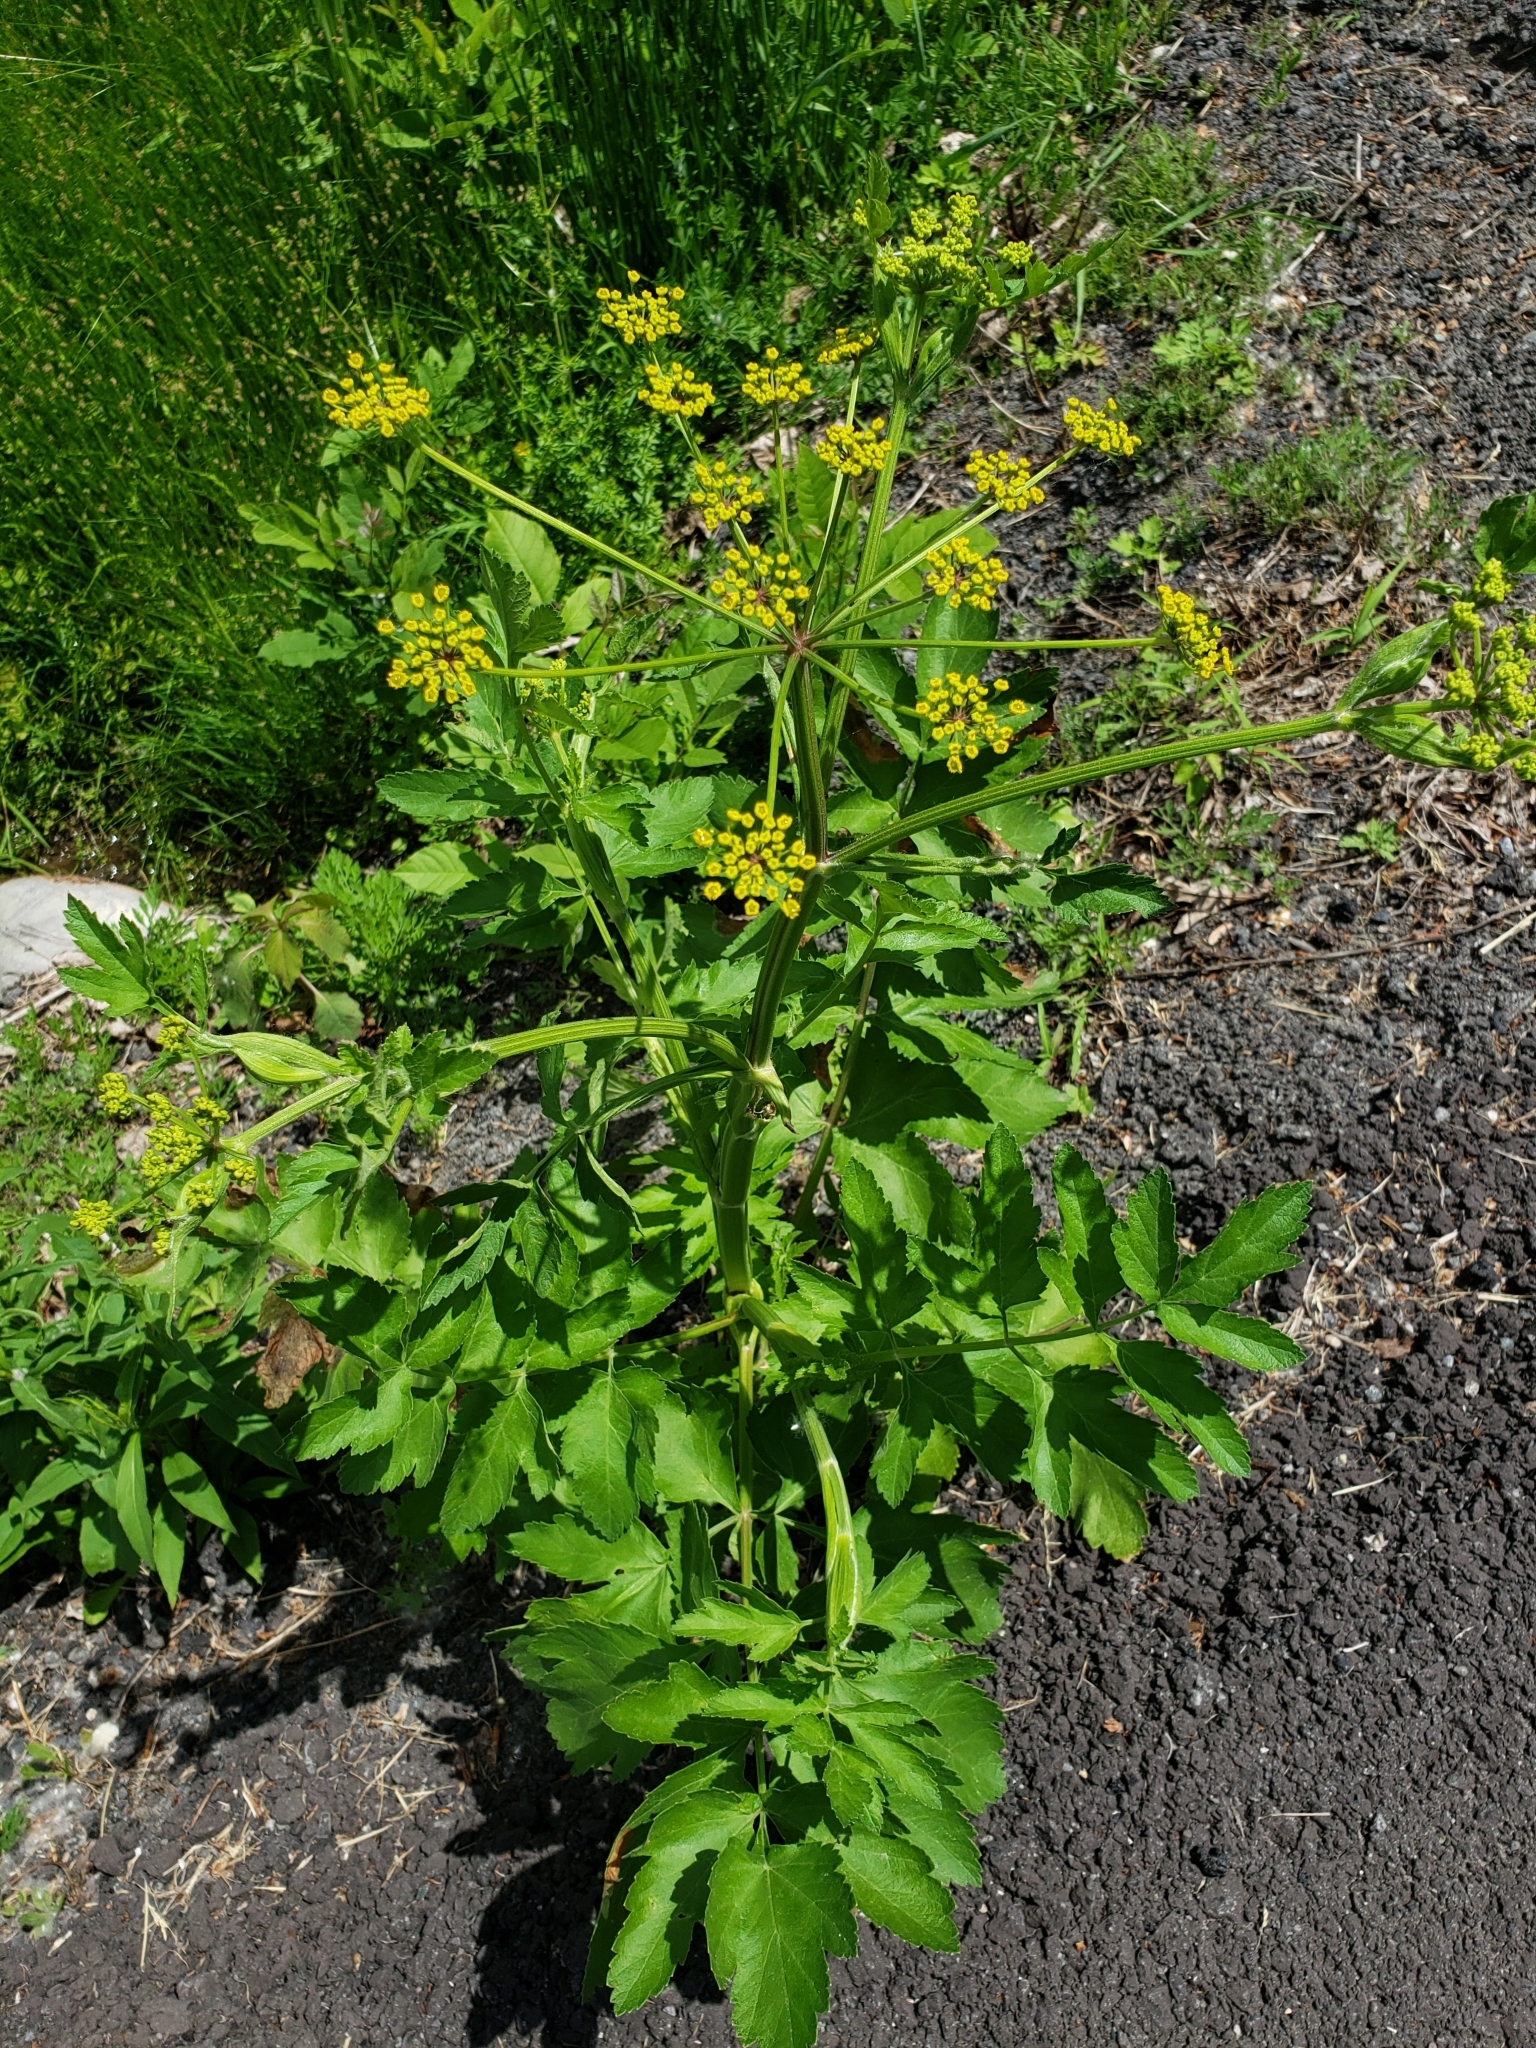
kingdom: Plantae
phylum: Tracheophyta
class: Magnoliopsida
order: Apiales
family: Apiaceae
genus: Pastinaca
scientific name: Pastinaca sativa
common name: Wild parsnip
